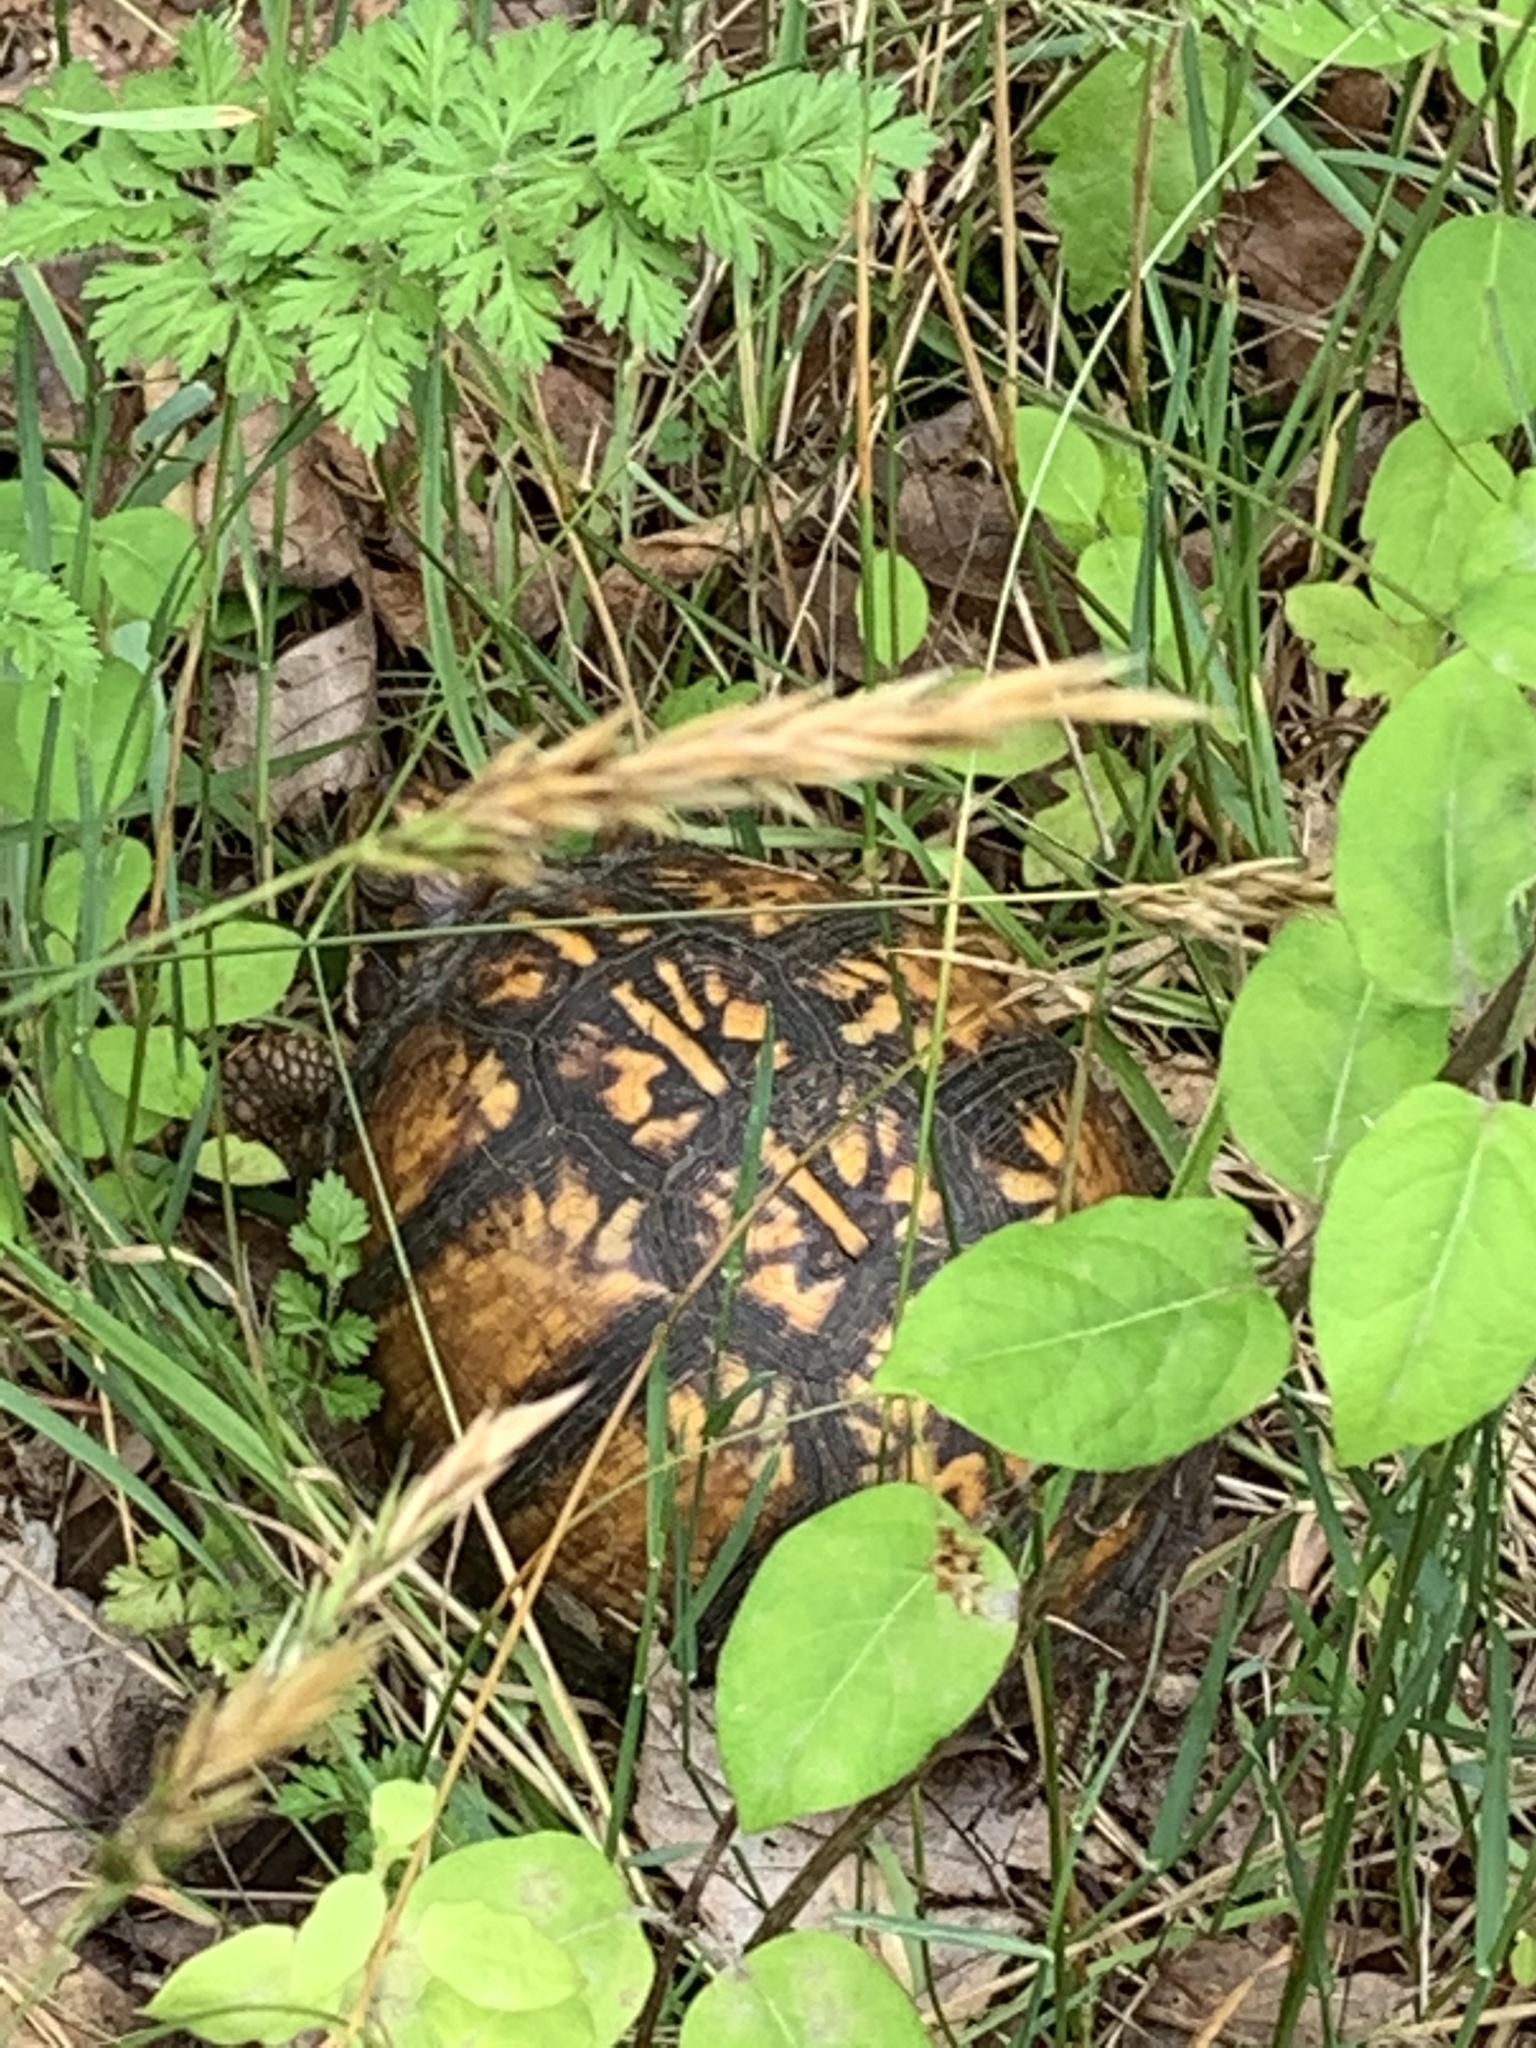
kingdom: Animalia
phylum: Chordata
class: Testudines
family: Emydidae
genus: Terrapene
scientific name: Terrapene carolina
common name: Common box turtle
